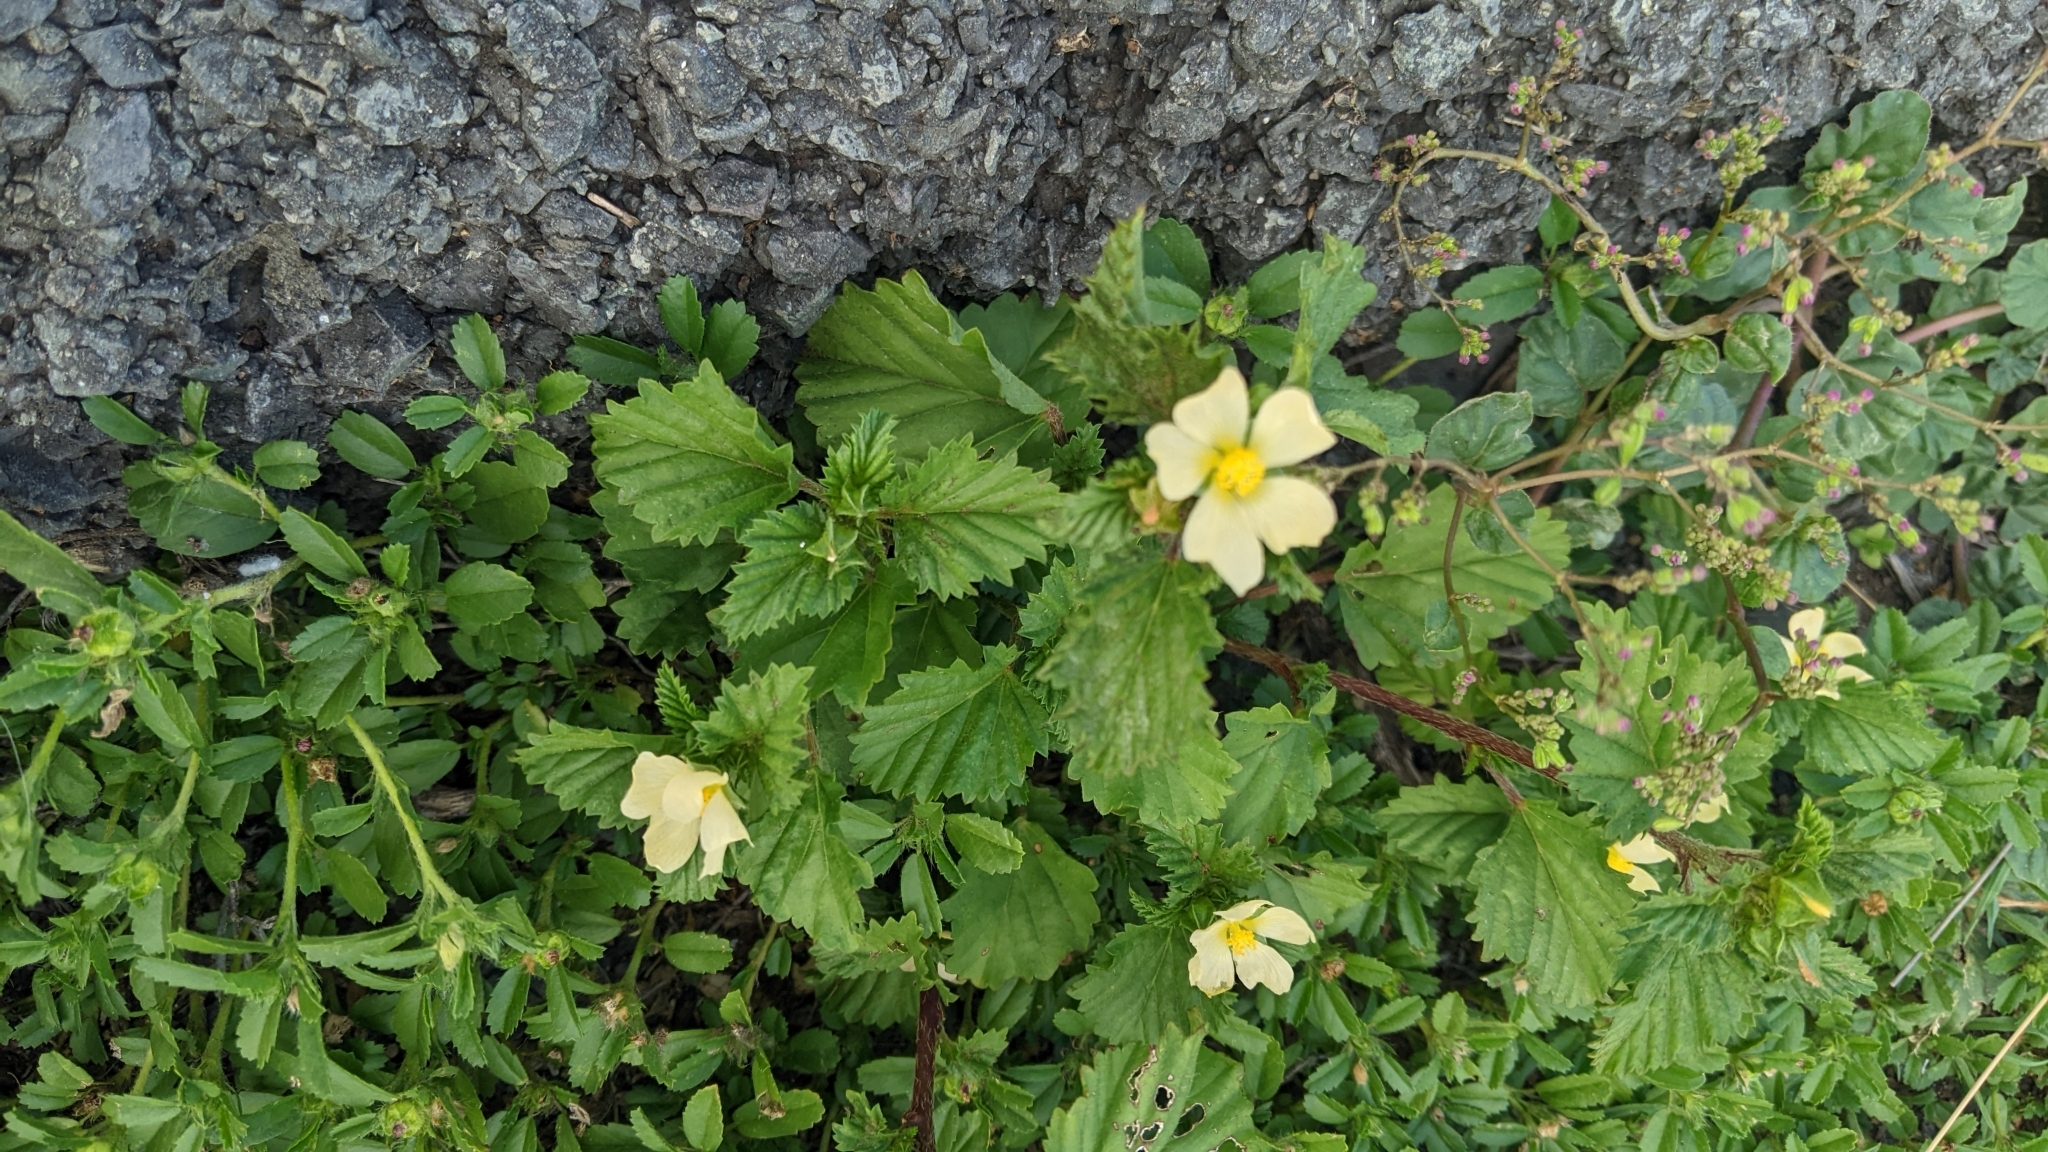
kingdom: Plantae
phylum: Tracheophyta
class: Magnoliopsida
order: Malvales
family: Malvaceae
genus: Malvastrum
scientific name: Malvastrum coromandelianum
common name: Threelobe false mallow
